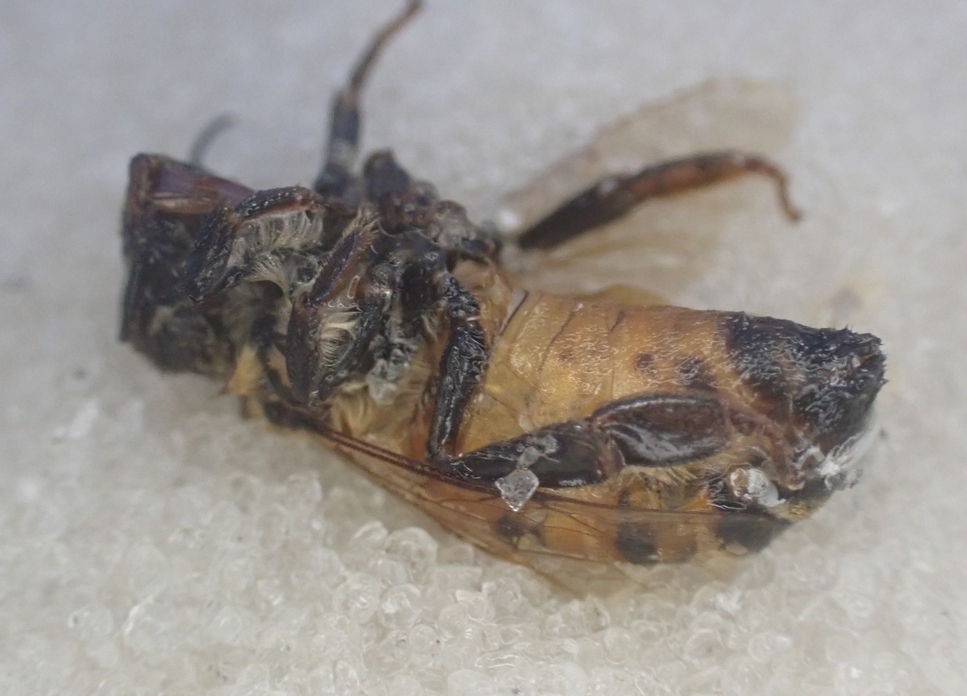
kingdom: Animalia
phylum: Arthropoda
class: Insecta
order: Hymenoptera
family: Apidae
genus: Apis
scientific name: Apis mellifera
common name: Honey bee
